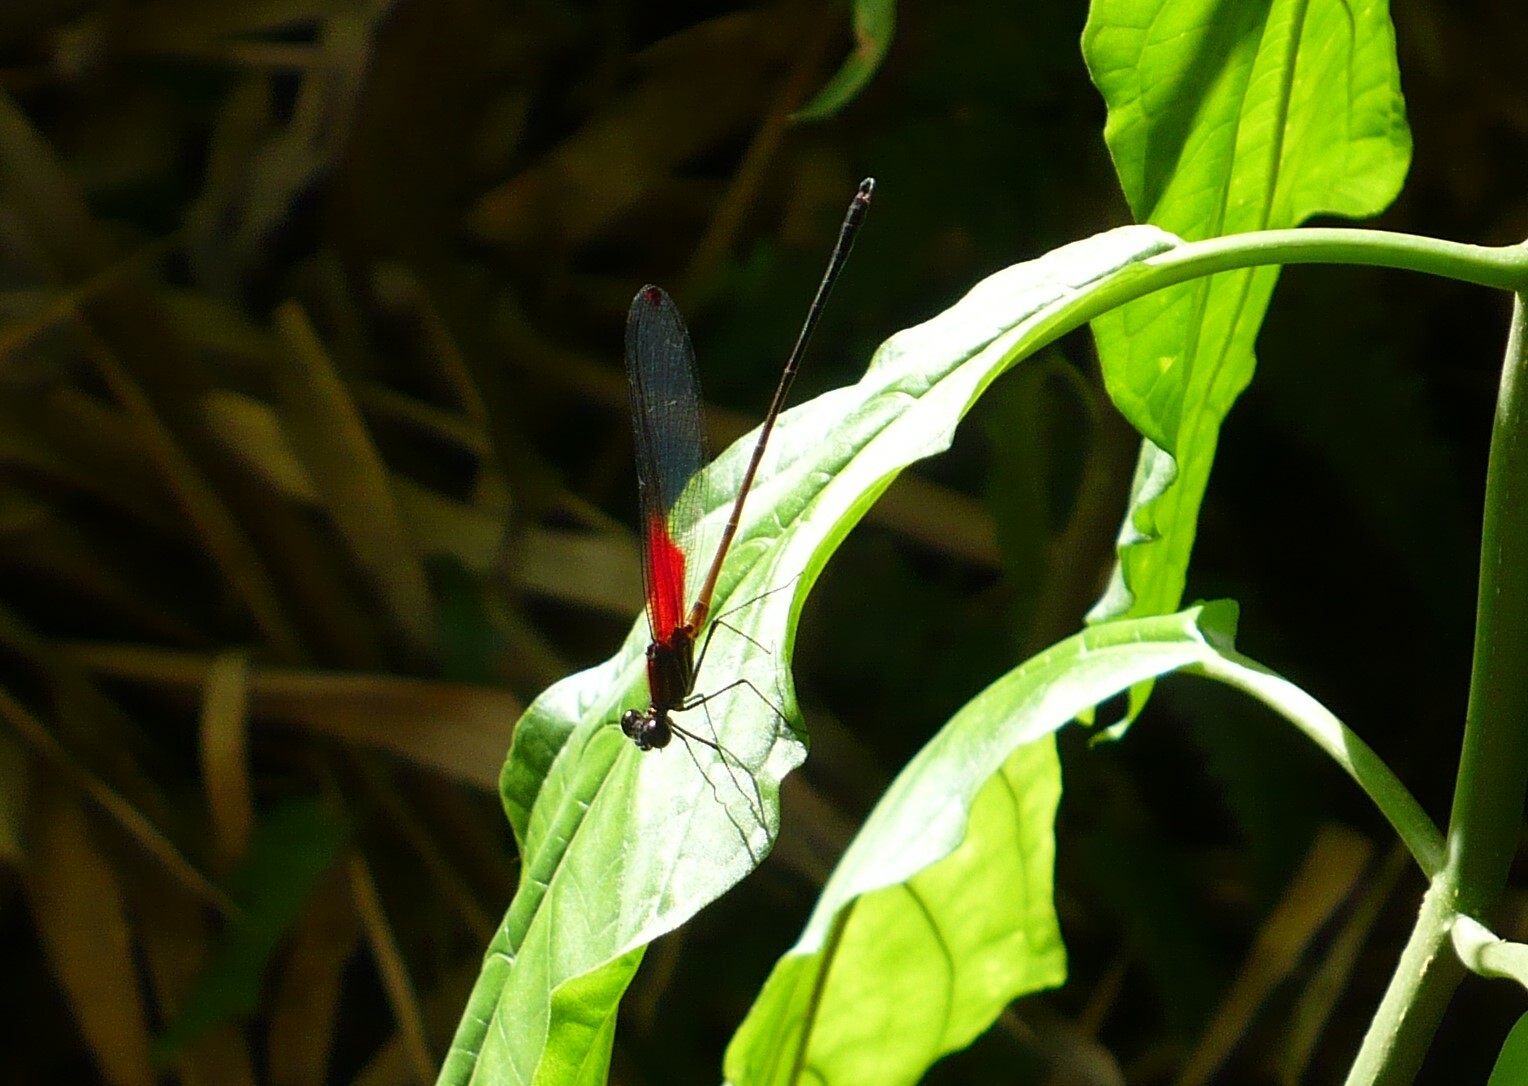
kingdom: Animalia
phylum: Arthropoda
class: Insecta
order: Odonata
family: Calopterygidae
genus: Hetaerina
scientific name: Hetaerina occisa
